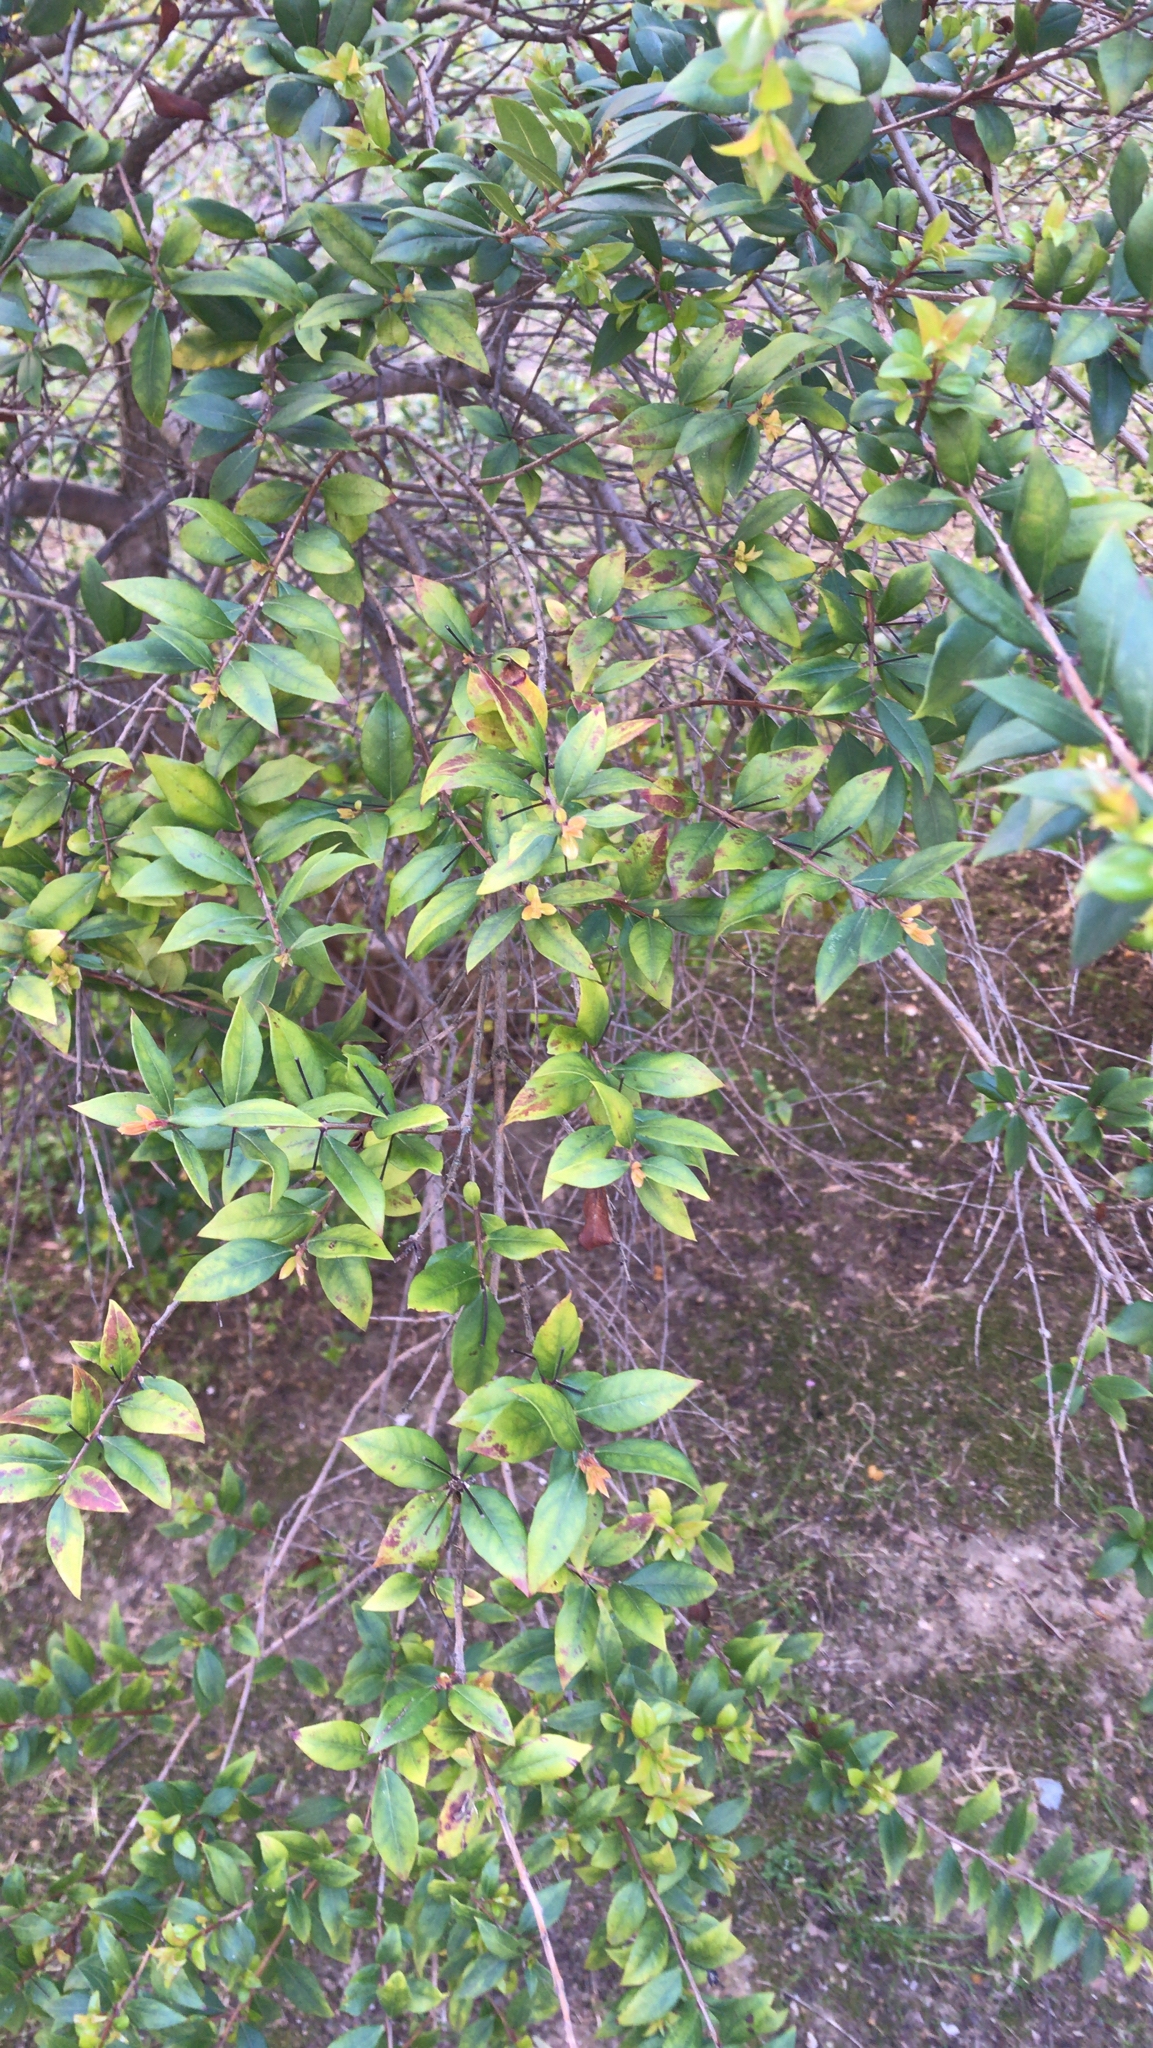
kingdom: Plantae
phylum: Tracheophyta
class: Magnoliopsida
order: Myrtales
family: Myrtaceae
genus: Myrtus
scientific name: Myrtus communis
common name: Myrtle
